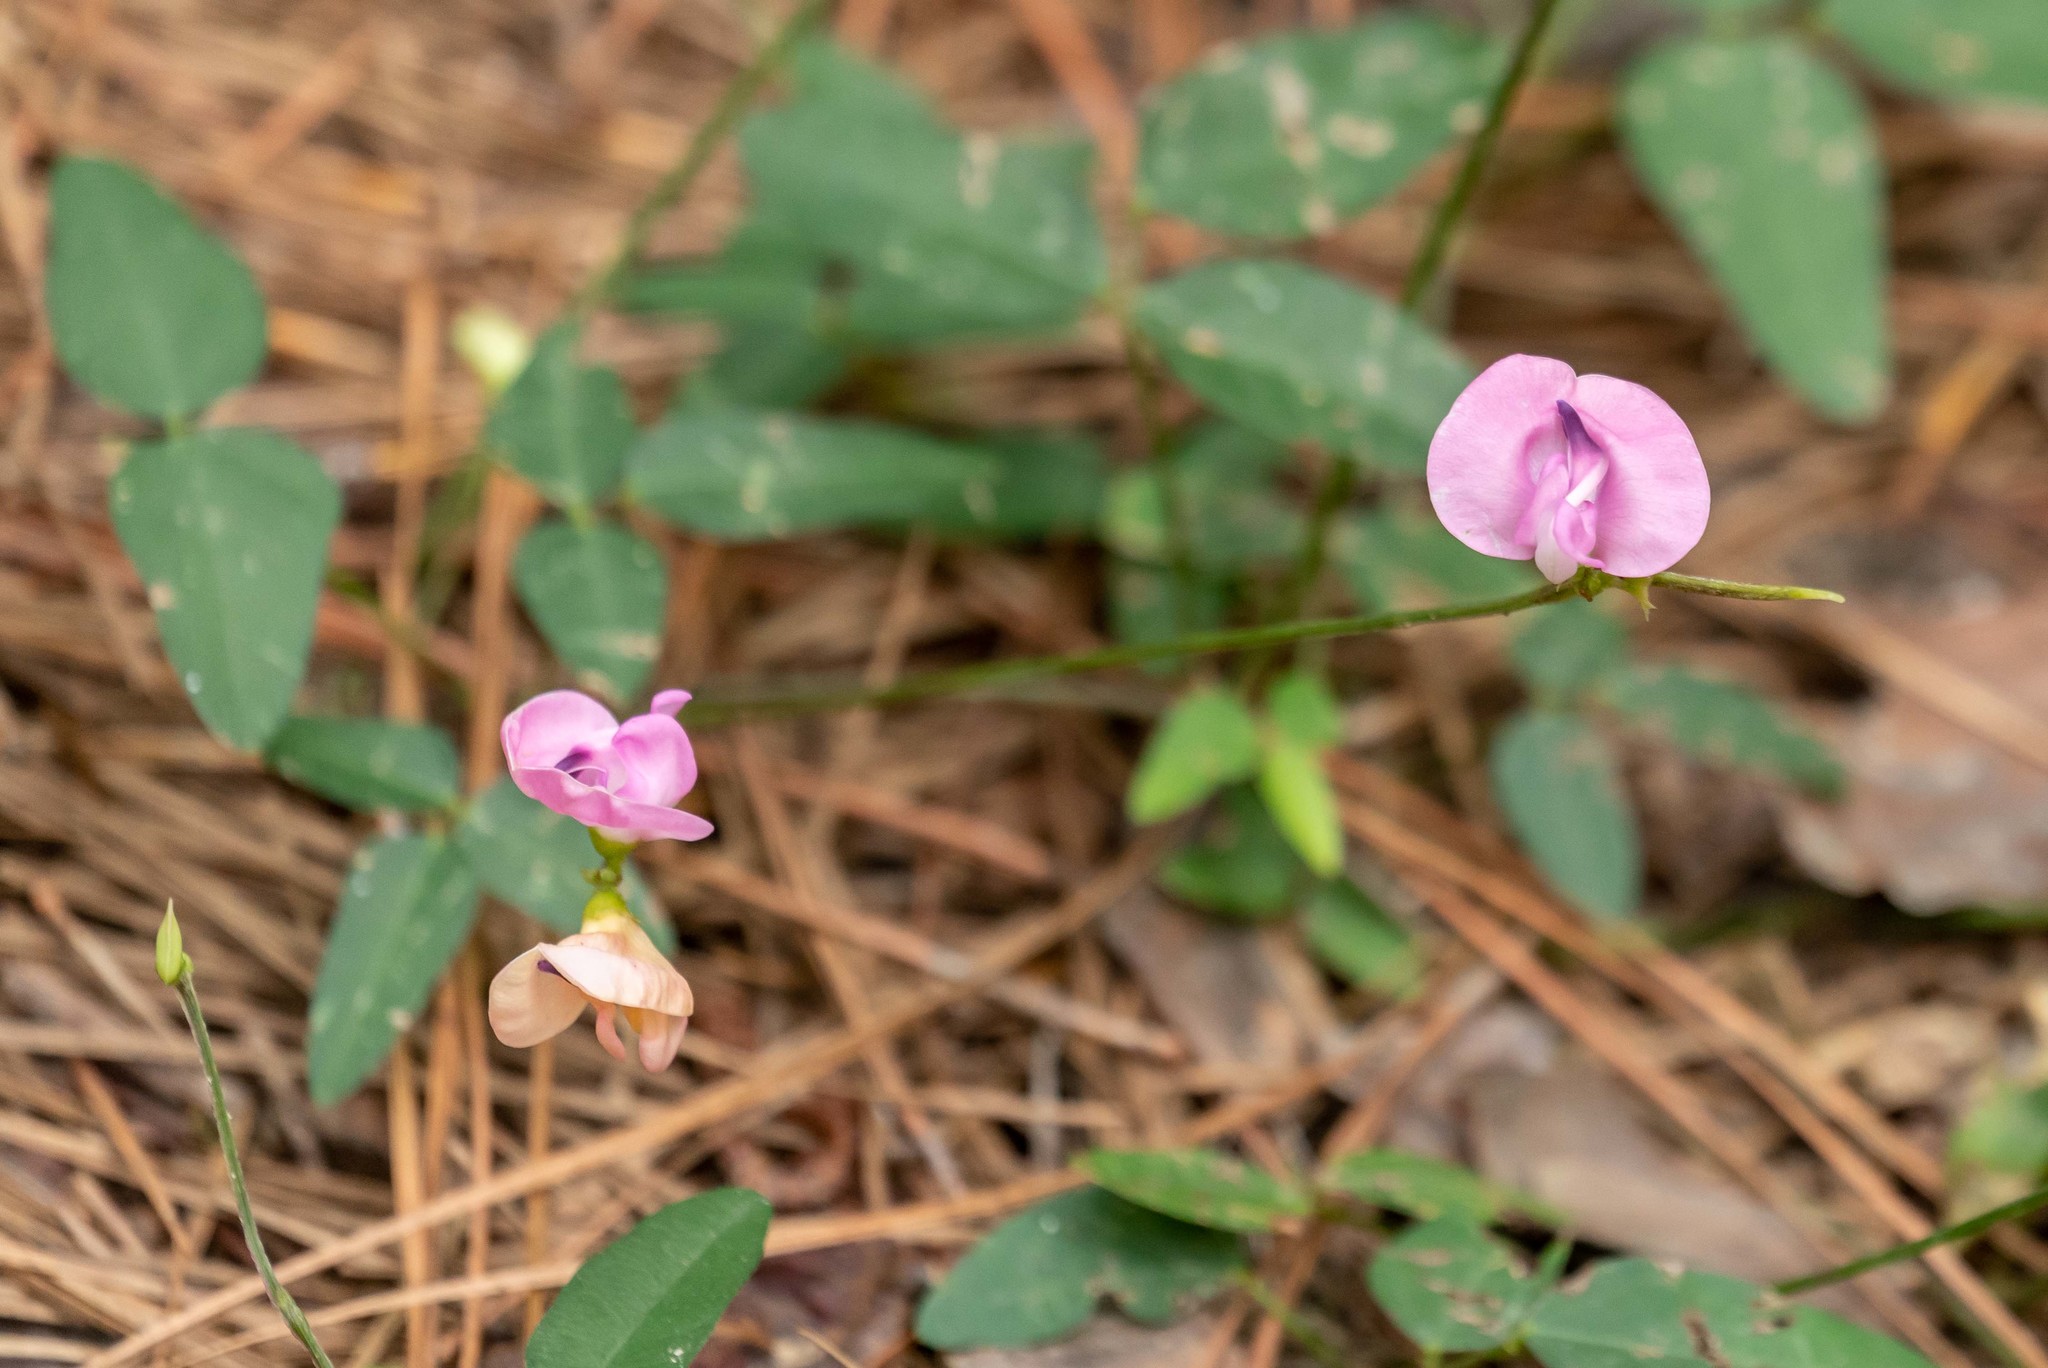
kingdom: Plantae
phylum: Tracheophyta
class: Magnoliopsida
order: Fabales
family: Fabaceae
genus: Strophostyles
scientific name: Strophostyles umbellata
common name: Perennial wild bean
